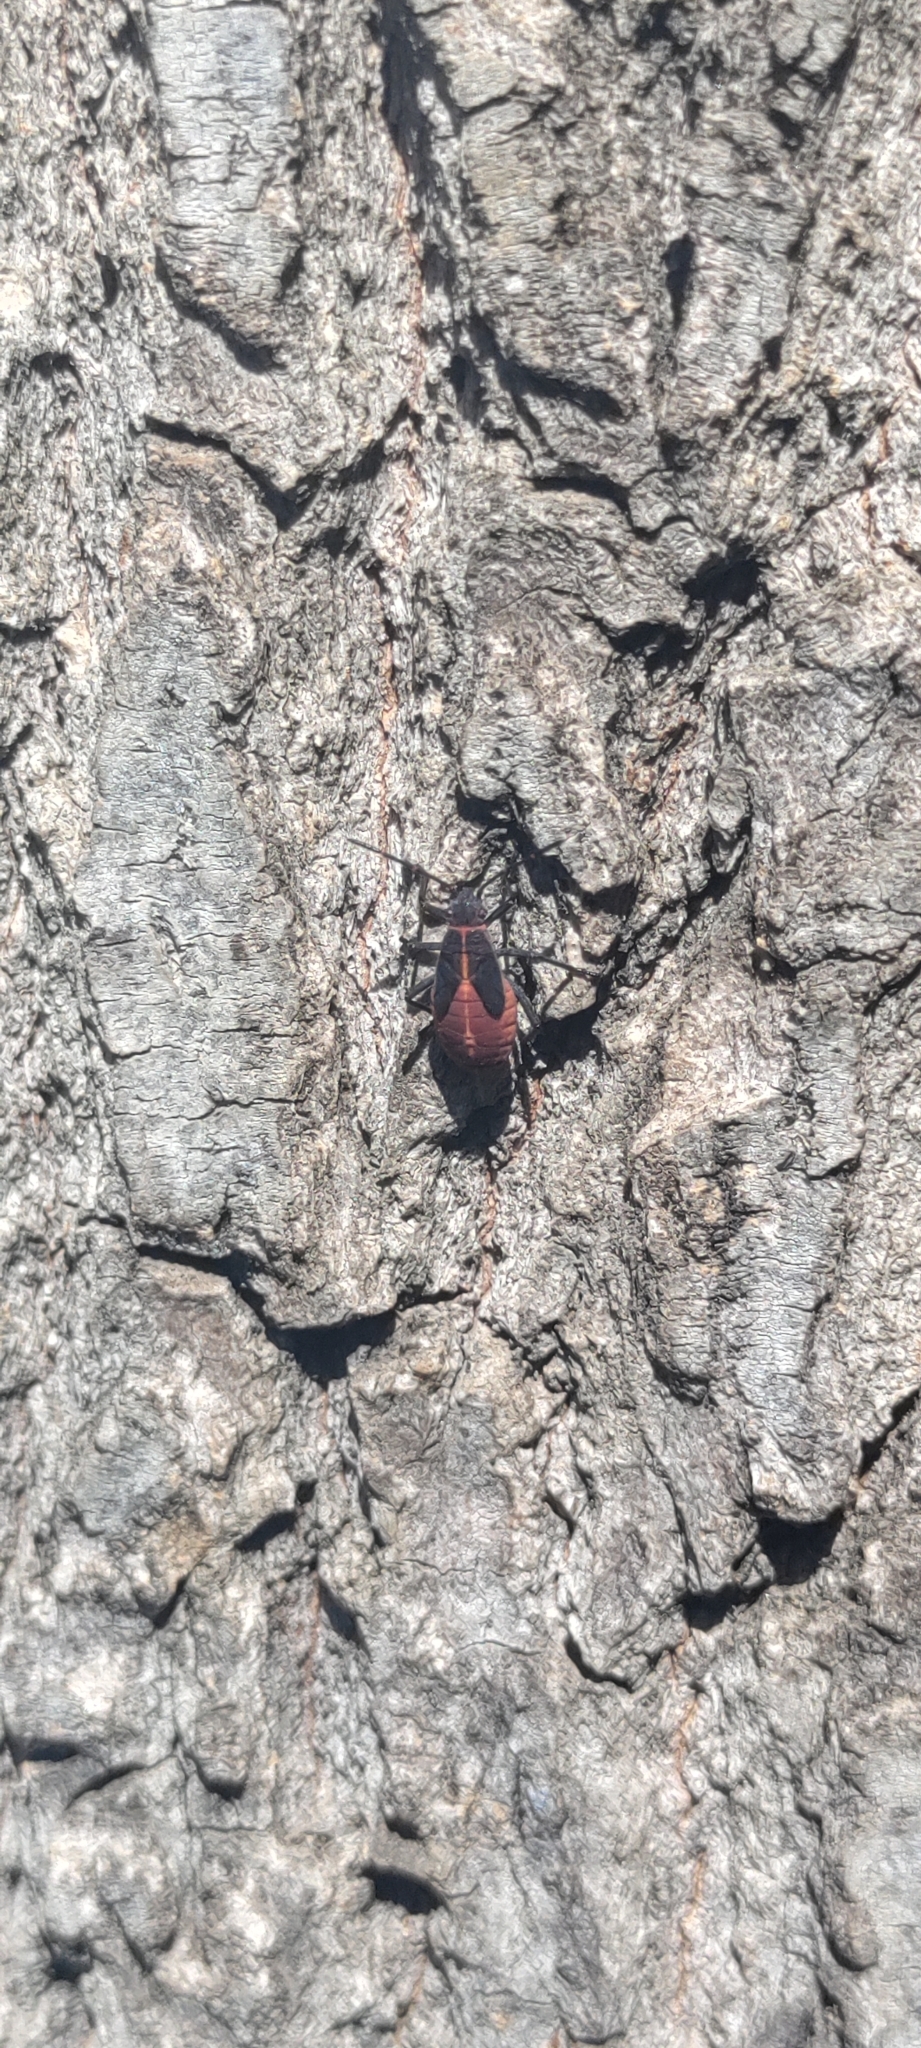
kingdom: Animalia
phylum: Arthropoda
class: Insecta
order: Hemiptera
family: Rhopalidae
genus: Boisea
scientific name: Boisea trivittata
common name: Boxelder bug
